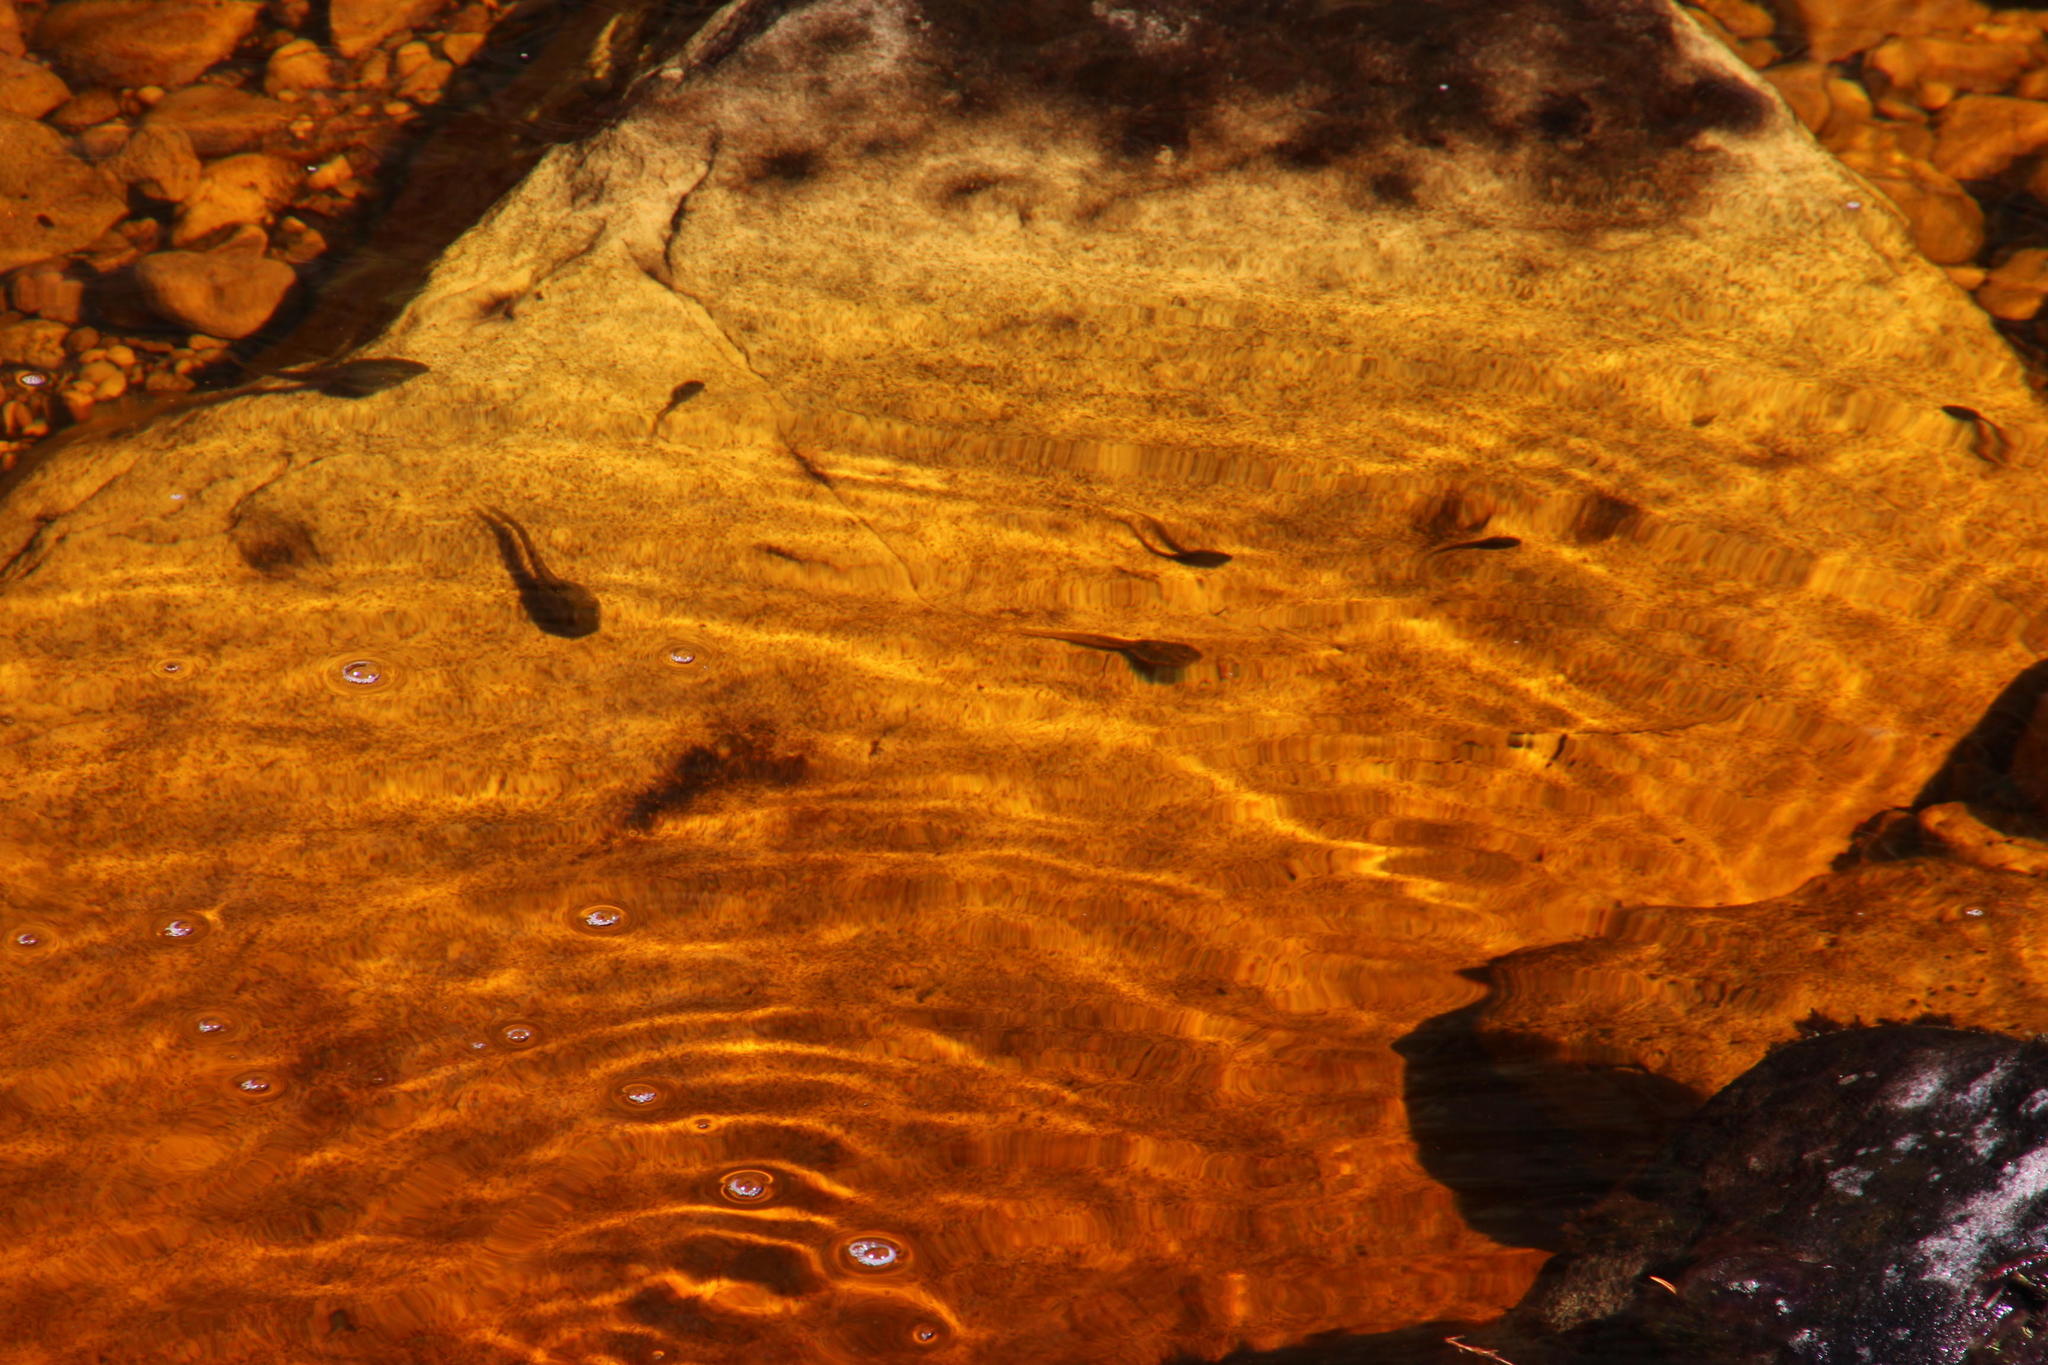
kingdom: Animalia
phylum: Chordata
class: Amphibia
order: Anura
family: Pyxicephalidae
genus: Amietia
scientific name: Amietia fuscigula
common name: Cape rana
